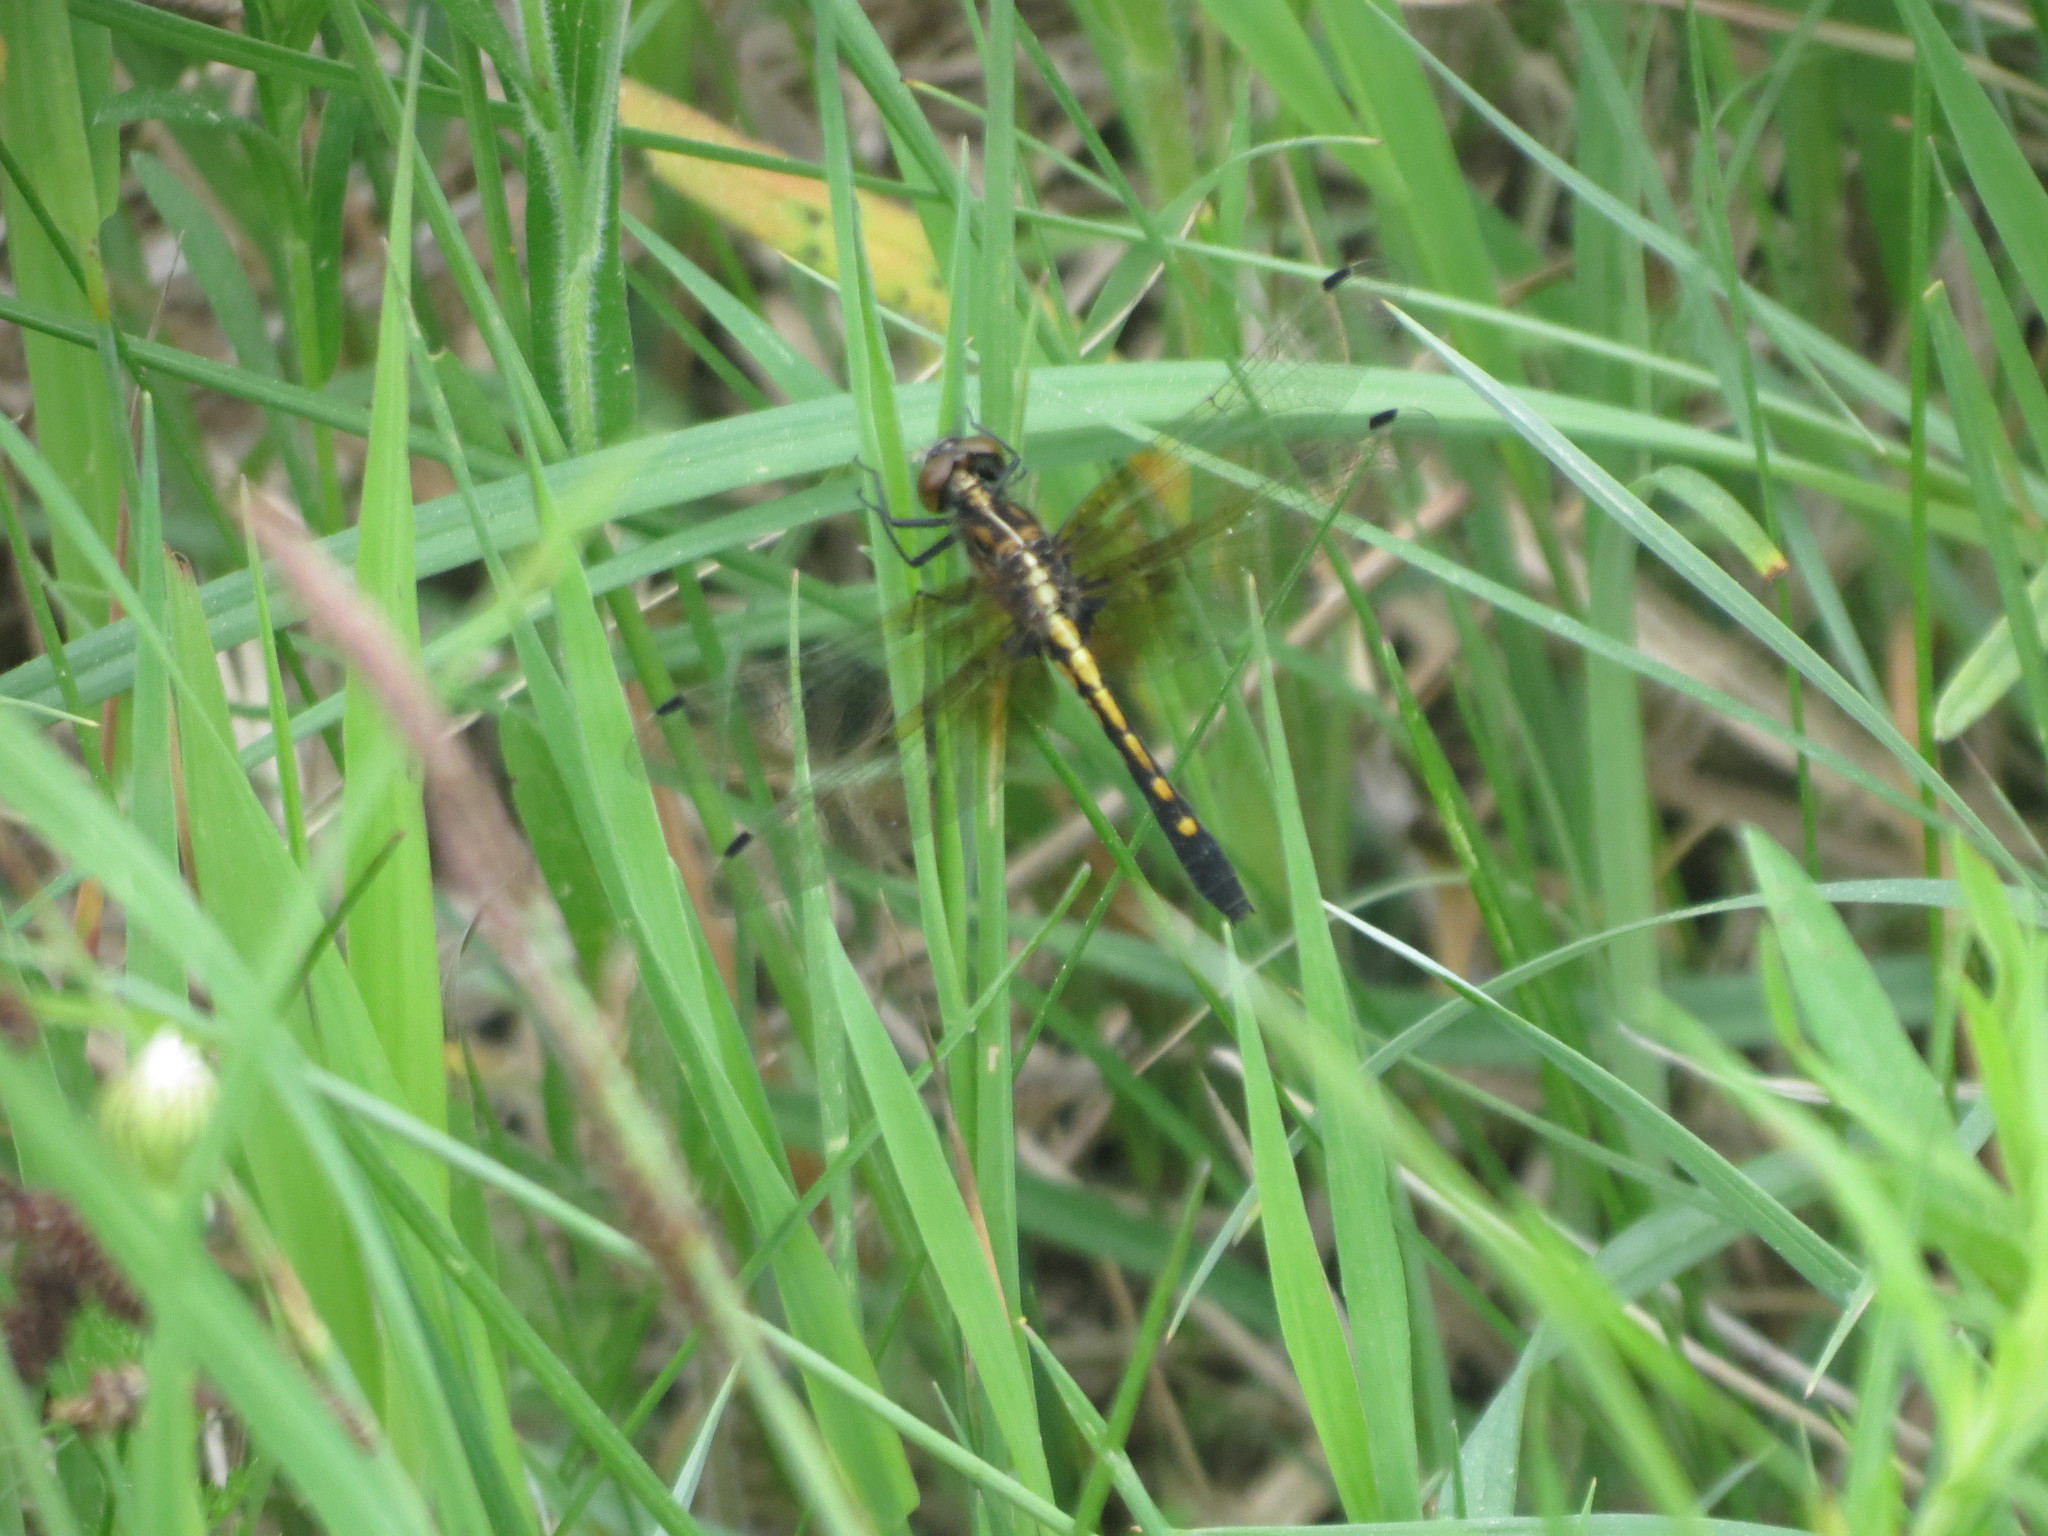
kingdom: Animalia
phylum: Arthropoda
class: Insecta
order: Odonata
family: Libellulidae
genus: Leucorrhinia
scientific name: Leucorrhinia intacta
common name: Dot-tailed whiteface
